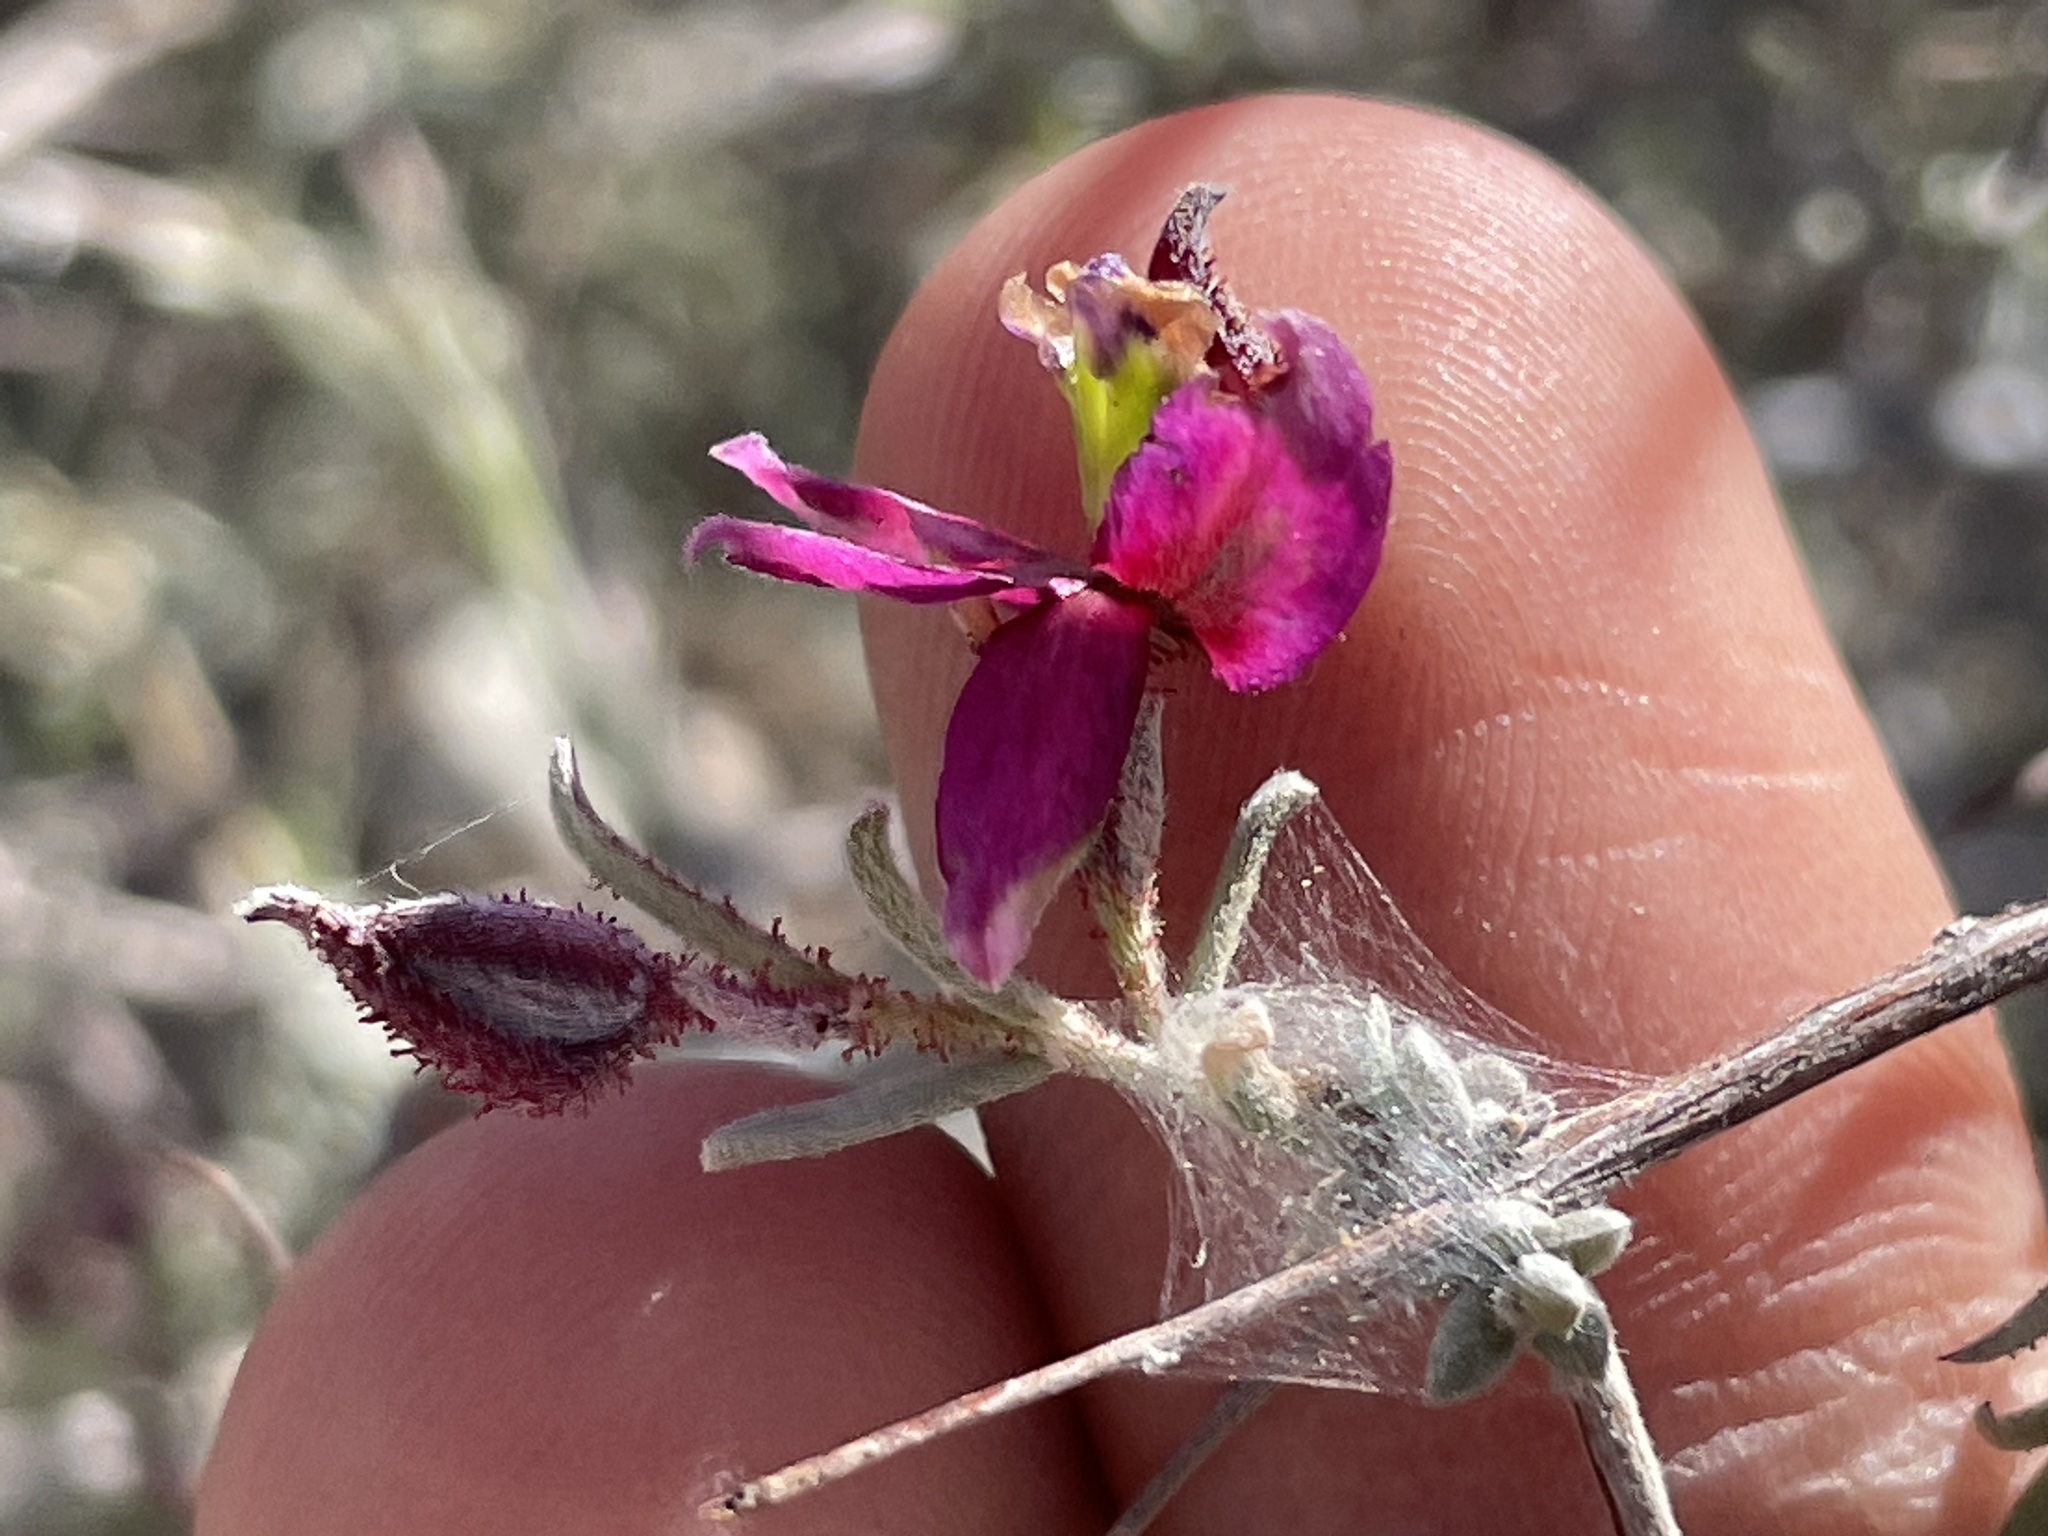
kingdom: Plantae
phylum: Tracheophyta
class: Magnoliopsida
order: Zygophyllales
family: Krameriaceae
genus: Krameria
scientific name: Krameria erecta
